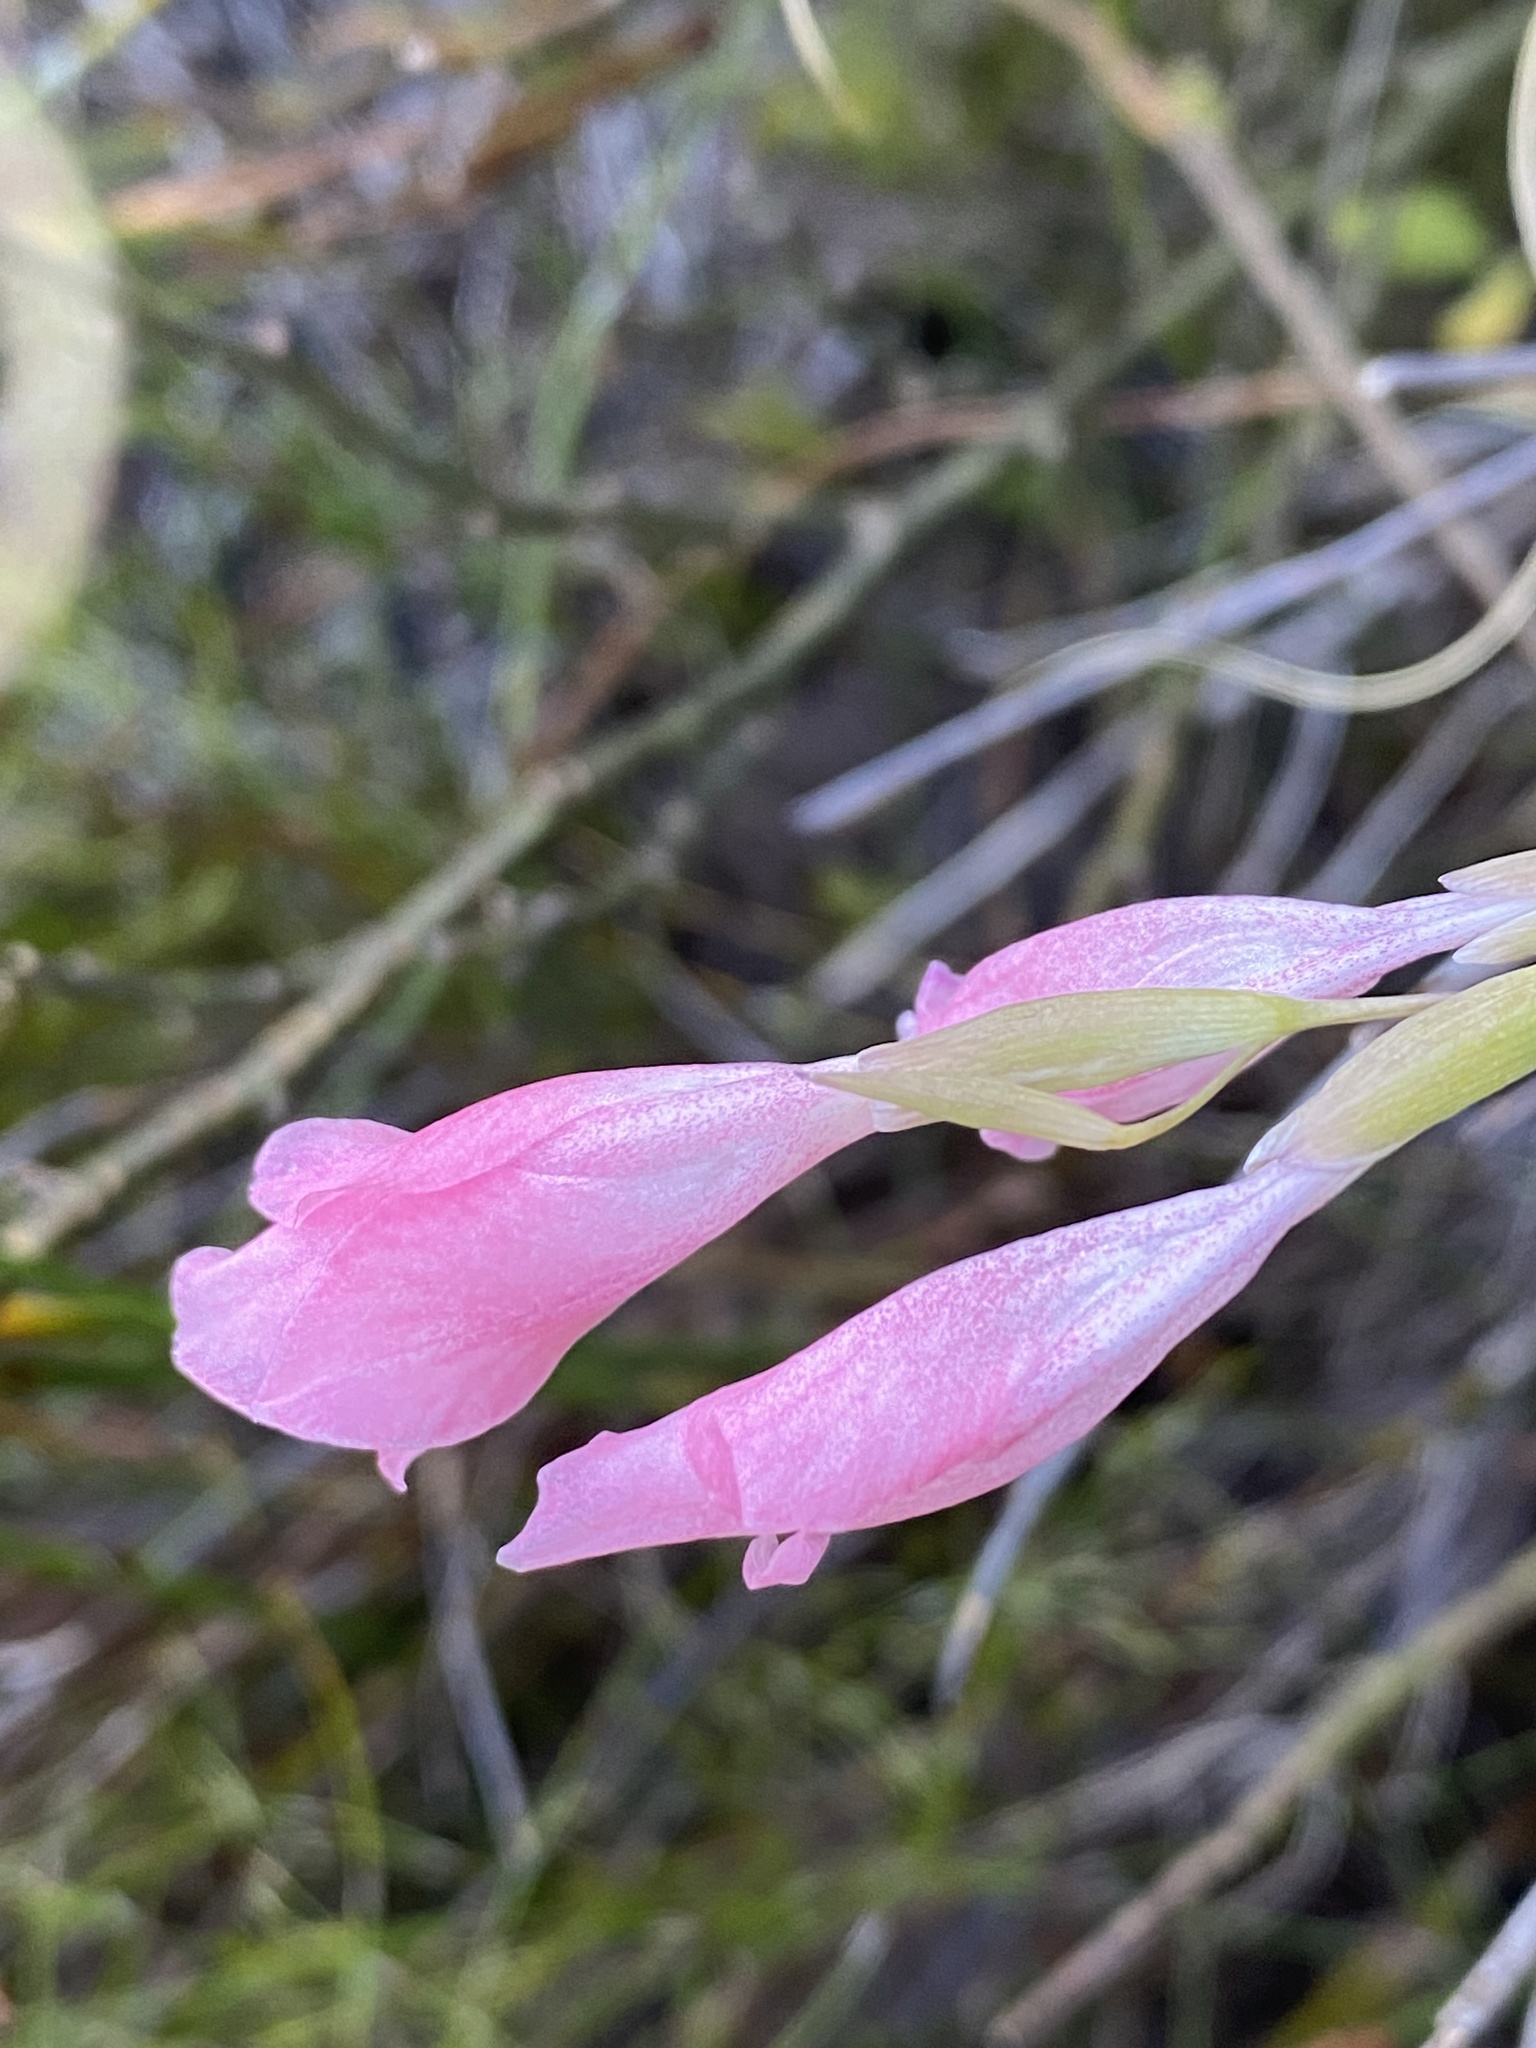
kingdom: Plantae
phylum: Tracheophyta
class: Liliopsida
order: Asparagales
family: Iridaceae
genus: Gladiolus
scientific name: Gladiolus brevifolius
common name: March pypie
